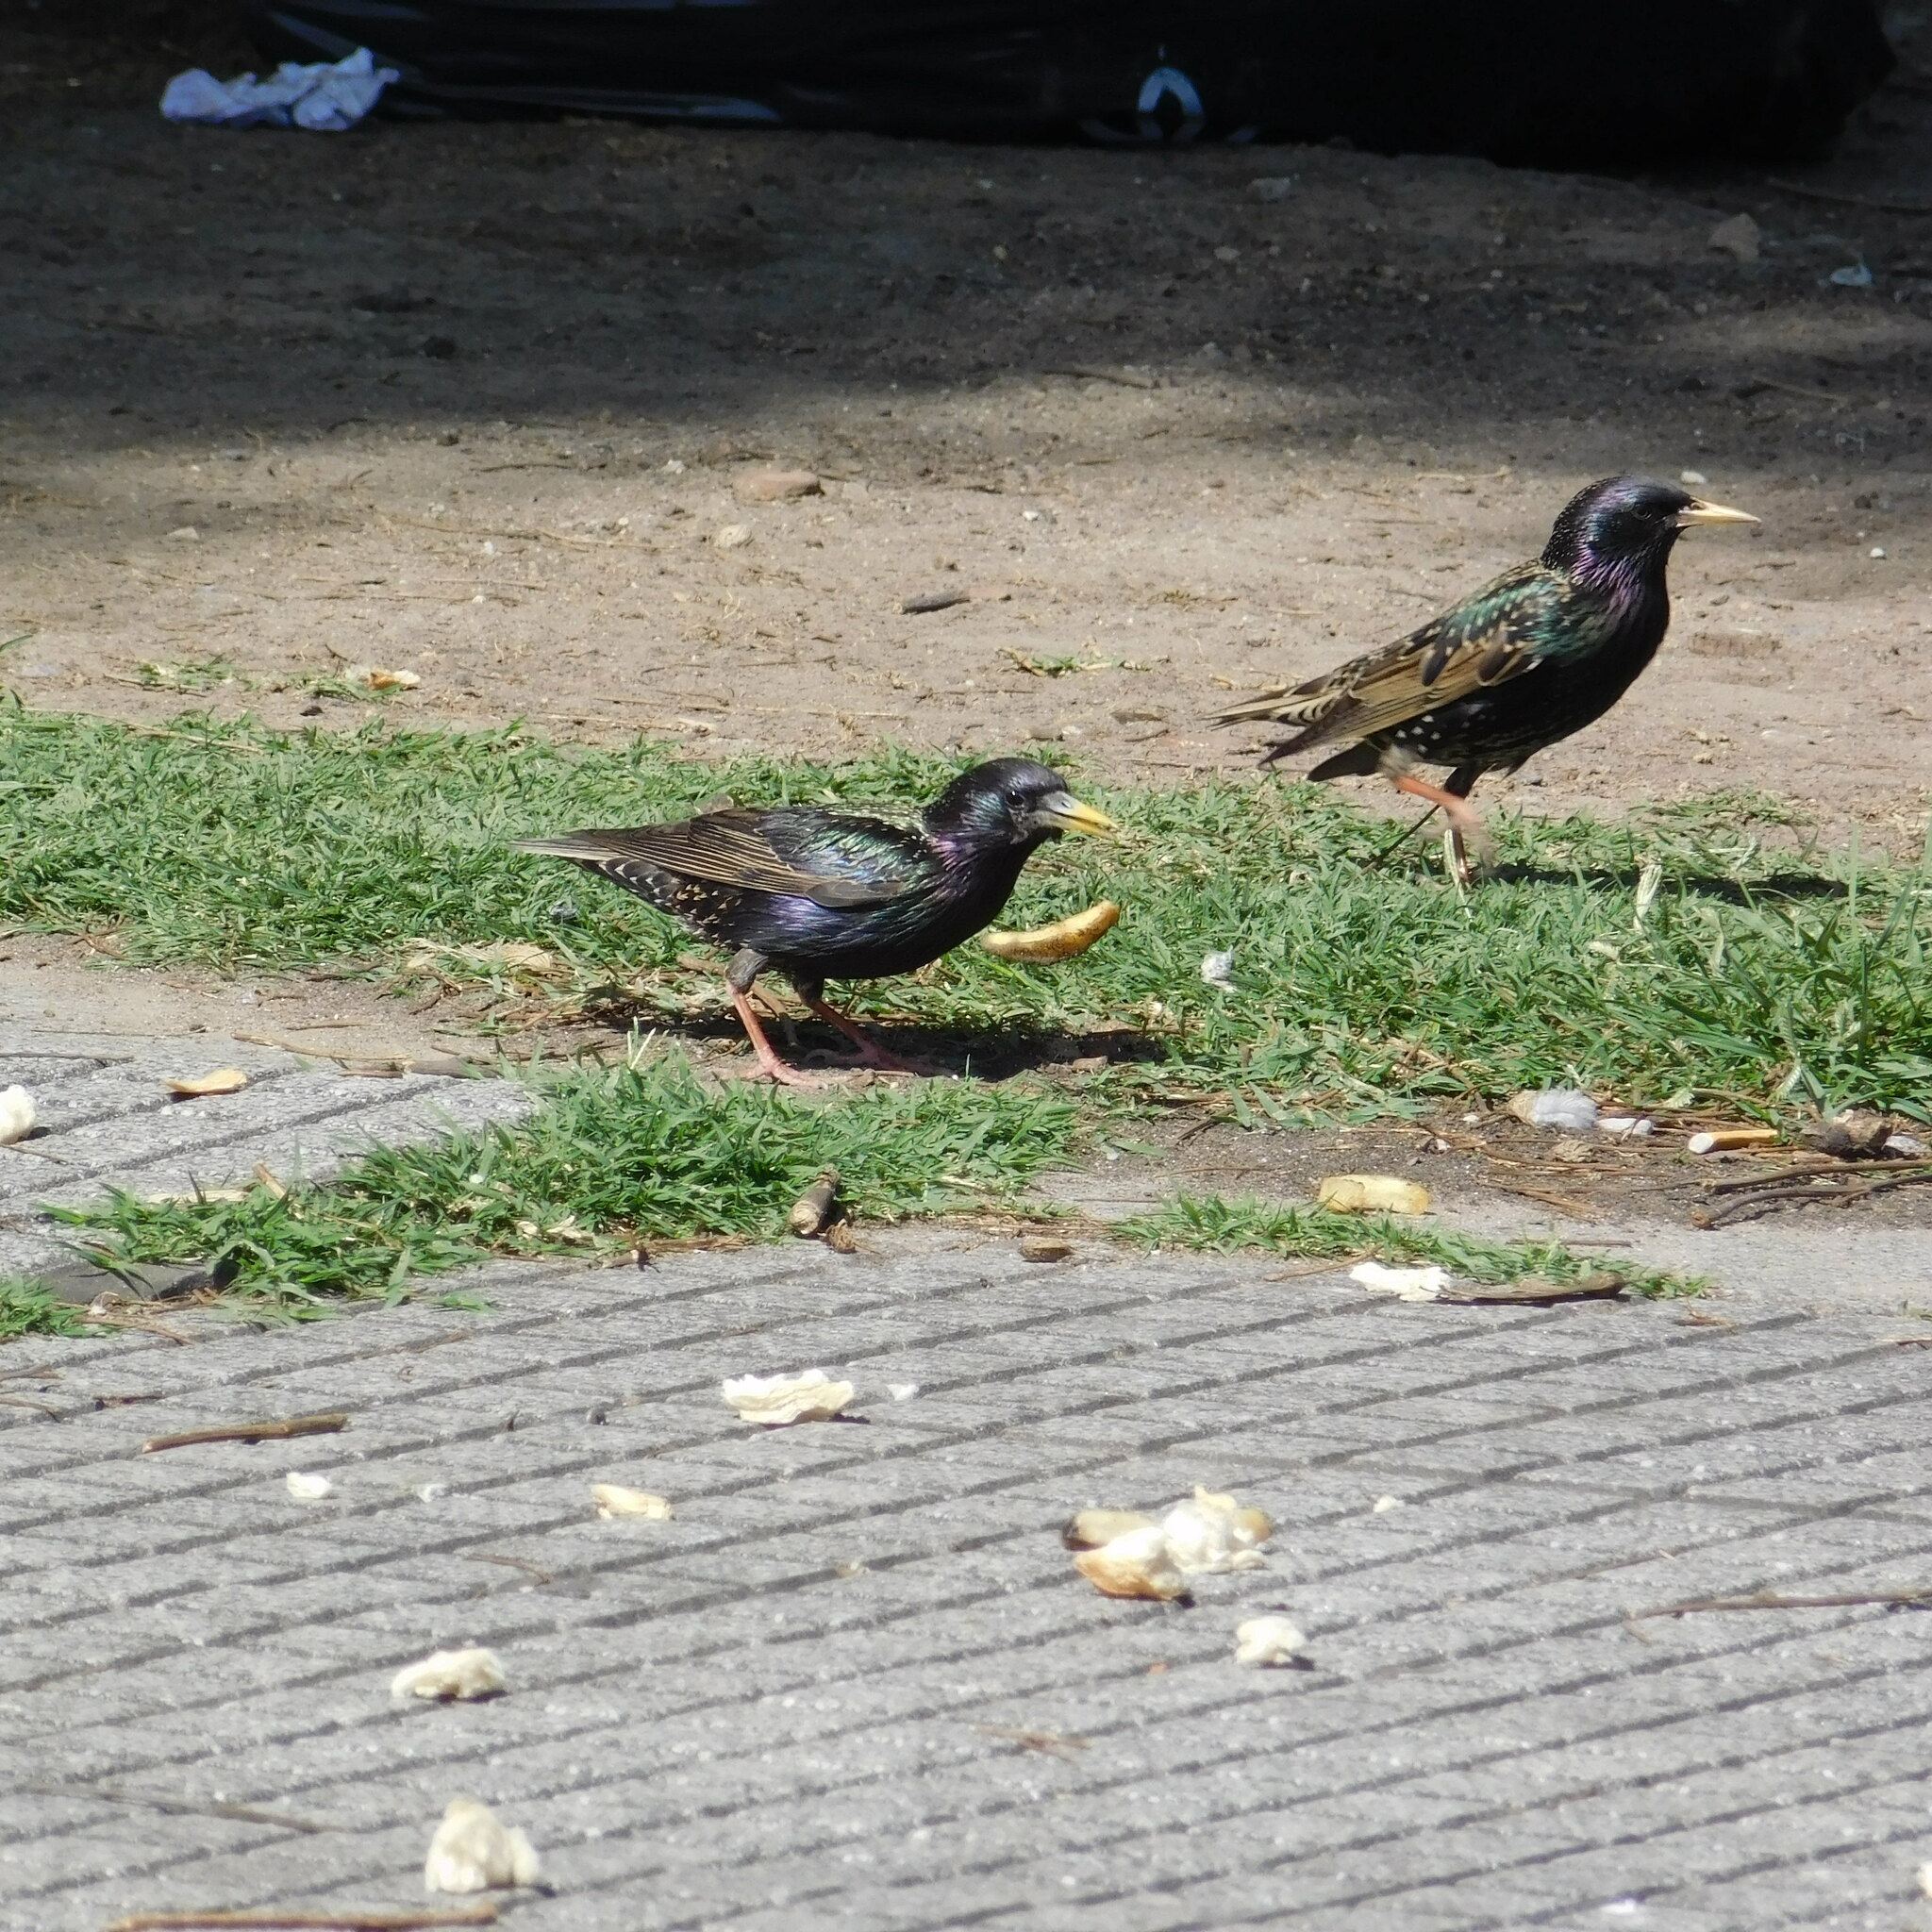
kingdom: Animalia
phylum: Chordata
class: Aves
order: Passeriformes
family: Sturnidae
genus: Sturnus
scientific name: Sturnus vulgaris
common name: Common starling
